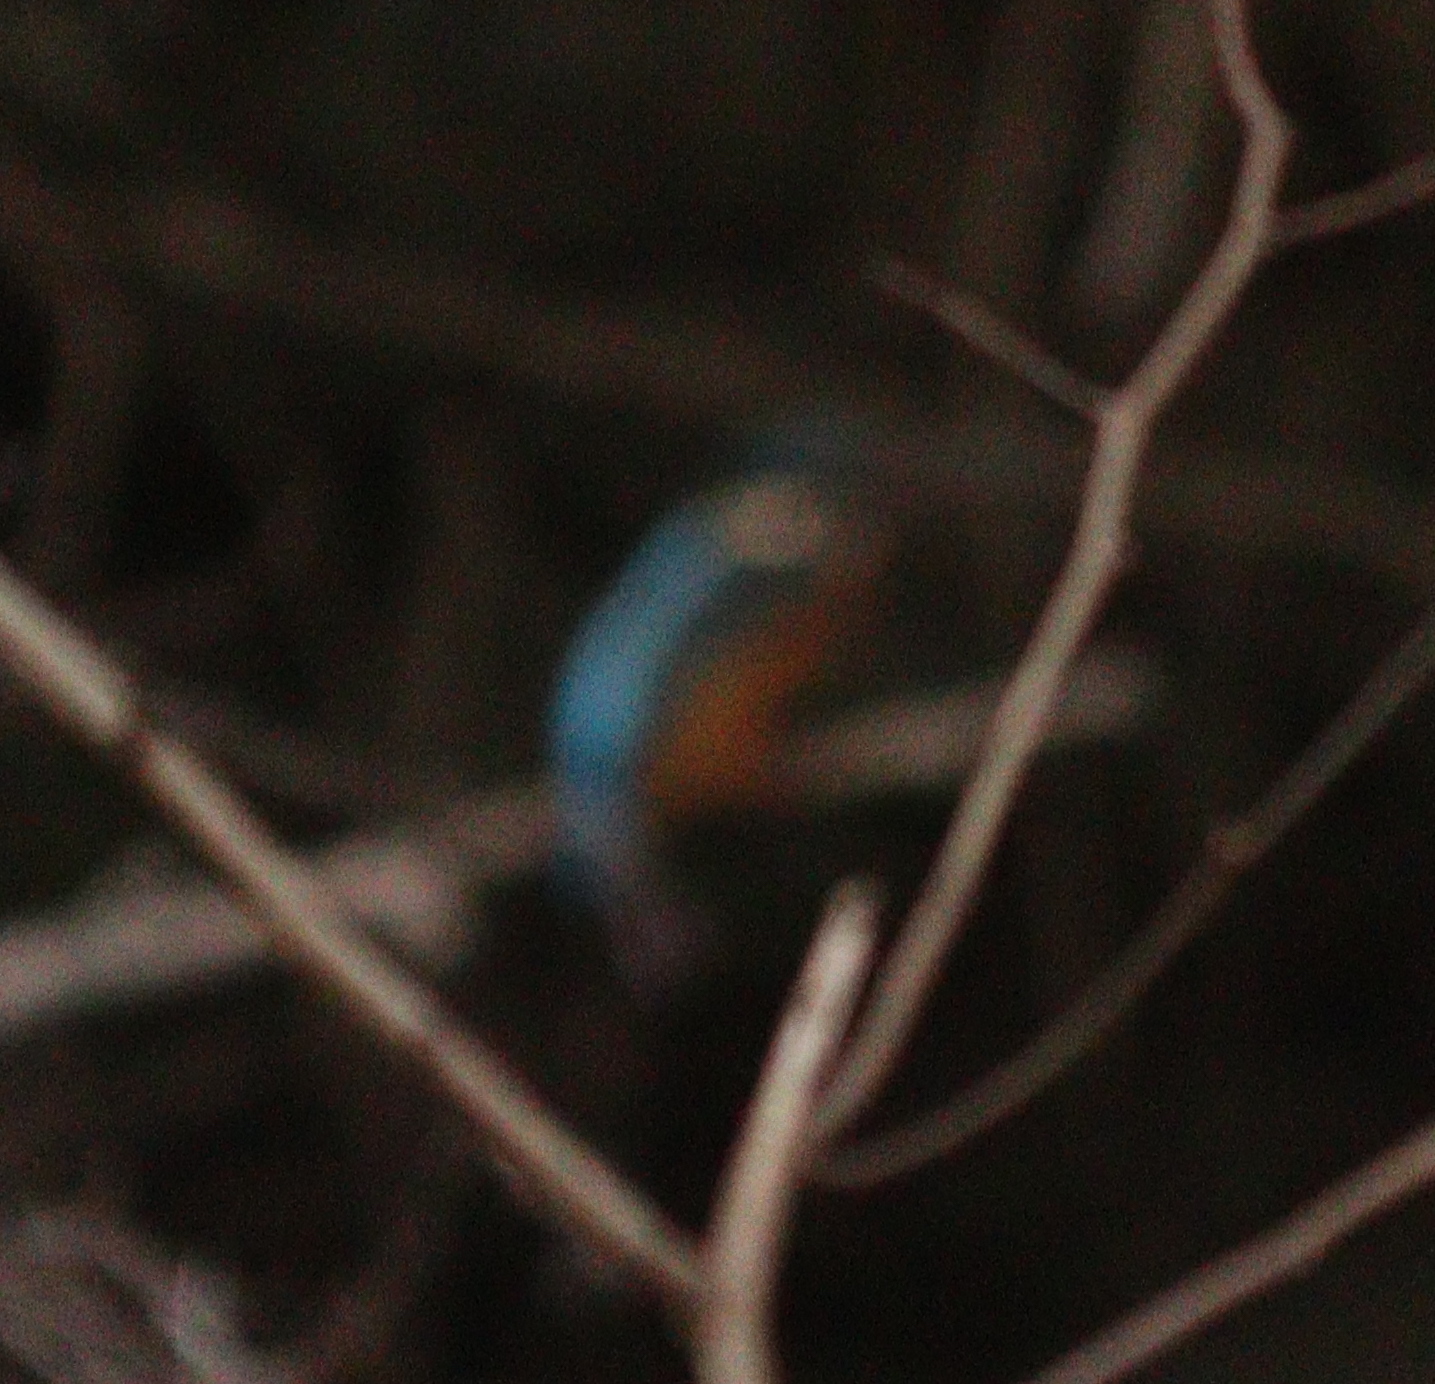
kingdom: Animalia
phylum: Chordata
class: Aves
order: Coraciiformes
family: Alcedinidae
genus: Alcedo
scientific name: Alcedo atthis
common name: Common kingfisher
